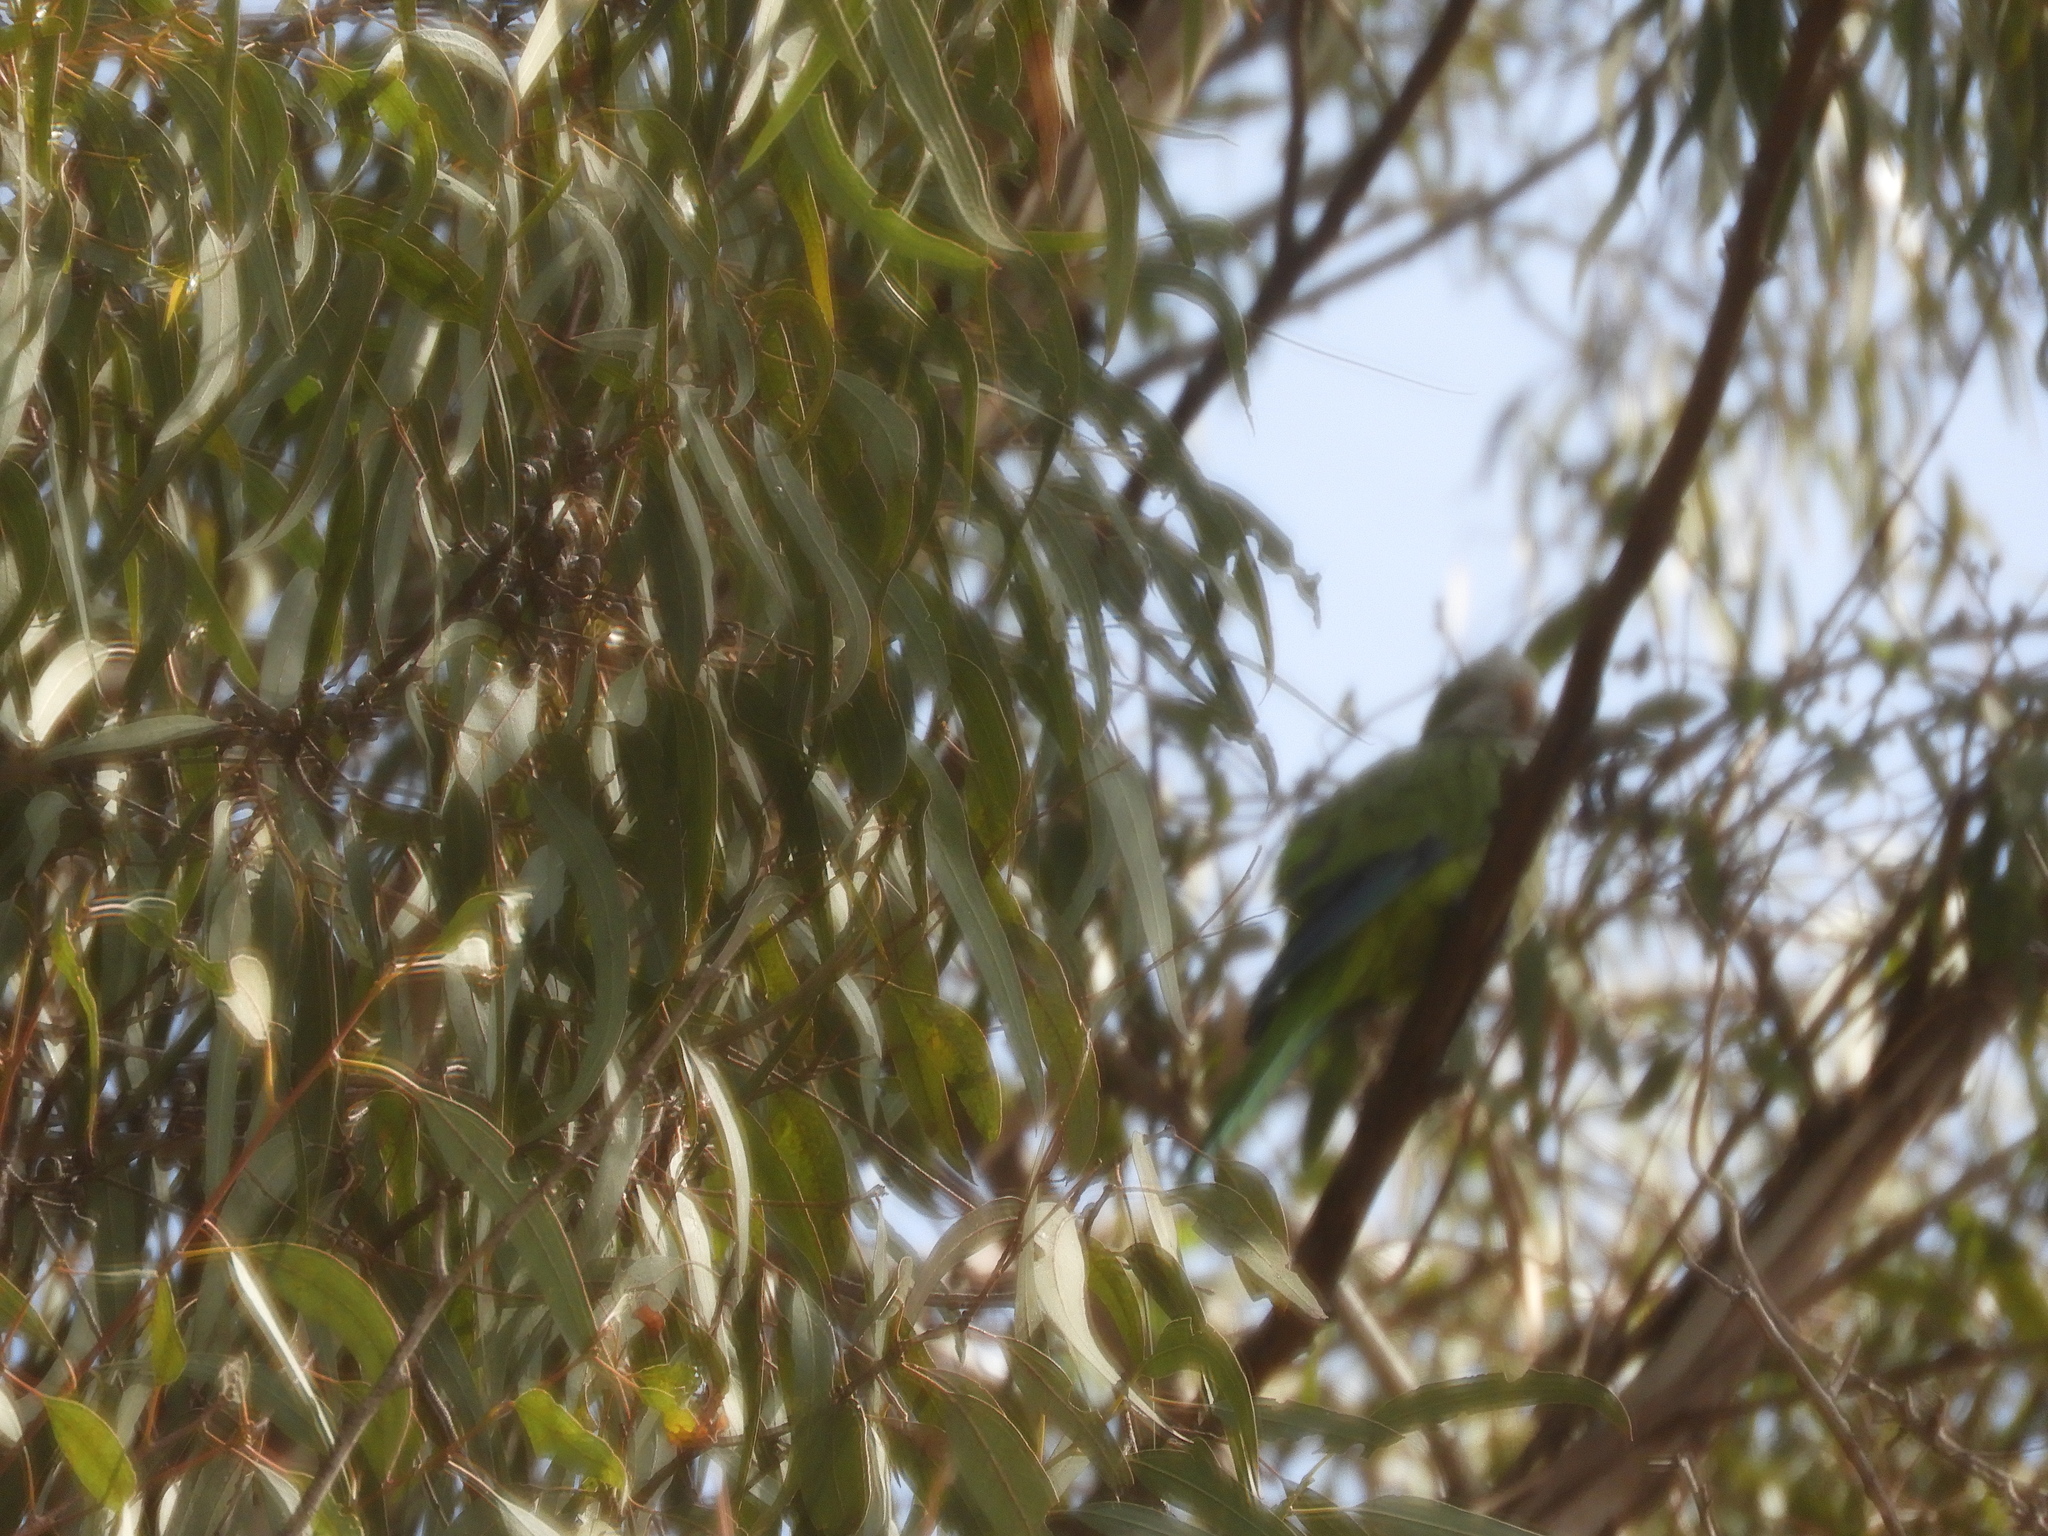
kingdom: Animalia
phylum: Chordata
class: Aves
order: Psittaciformes
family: Psittacidae
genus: Myiopsitta
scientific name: Myiopsitta monachus
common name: Monk parakeet
